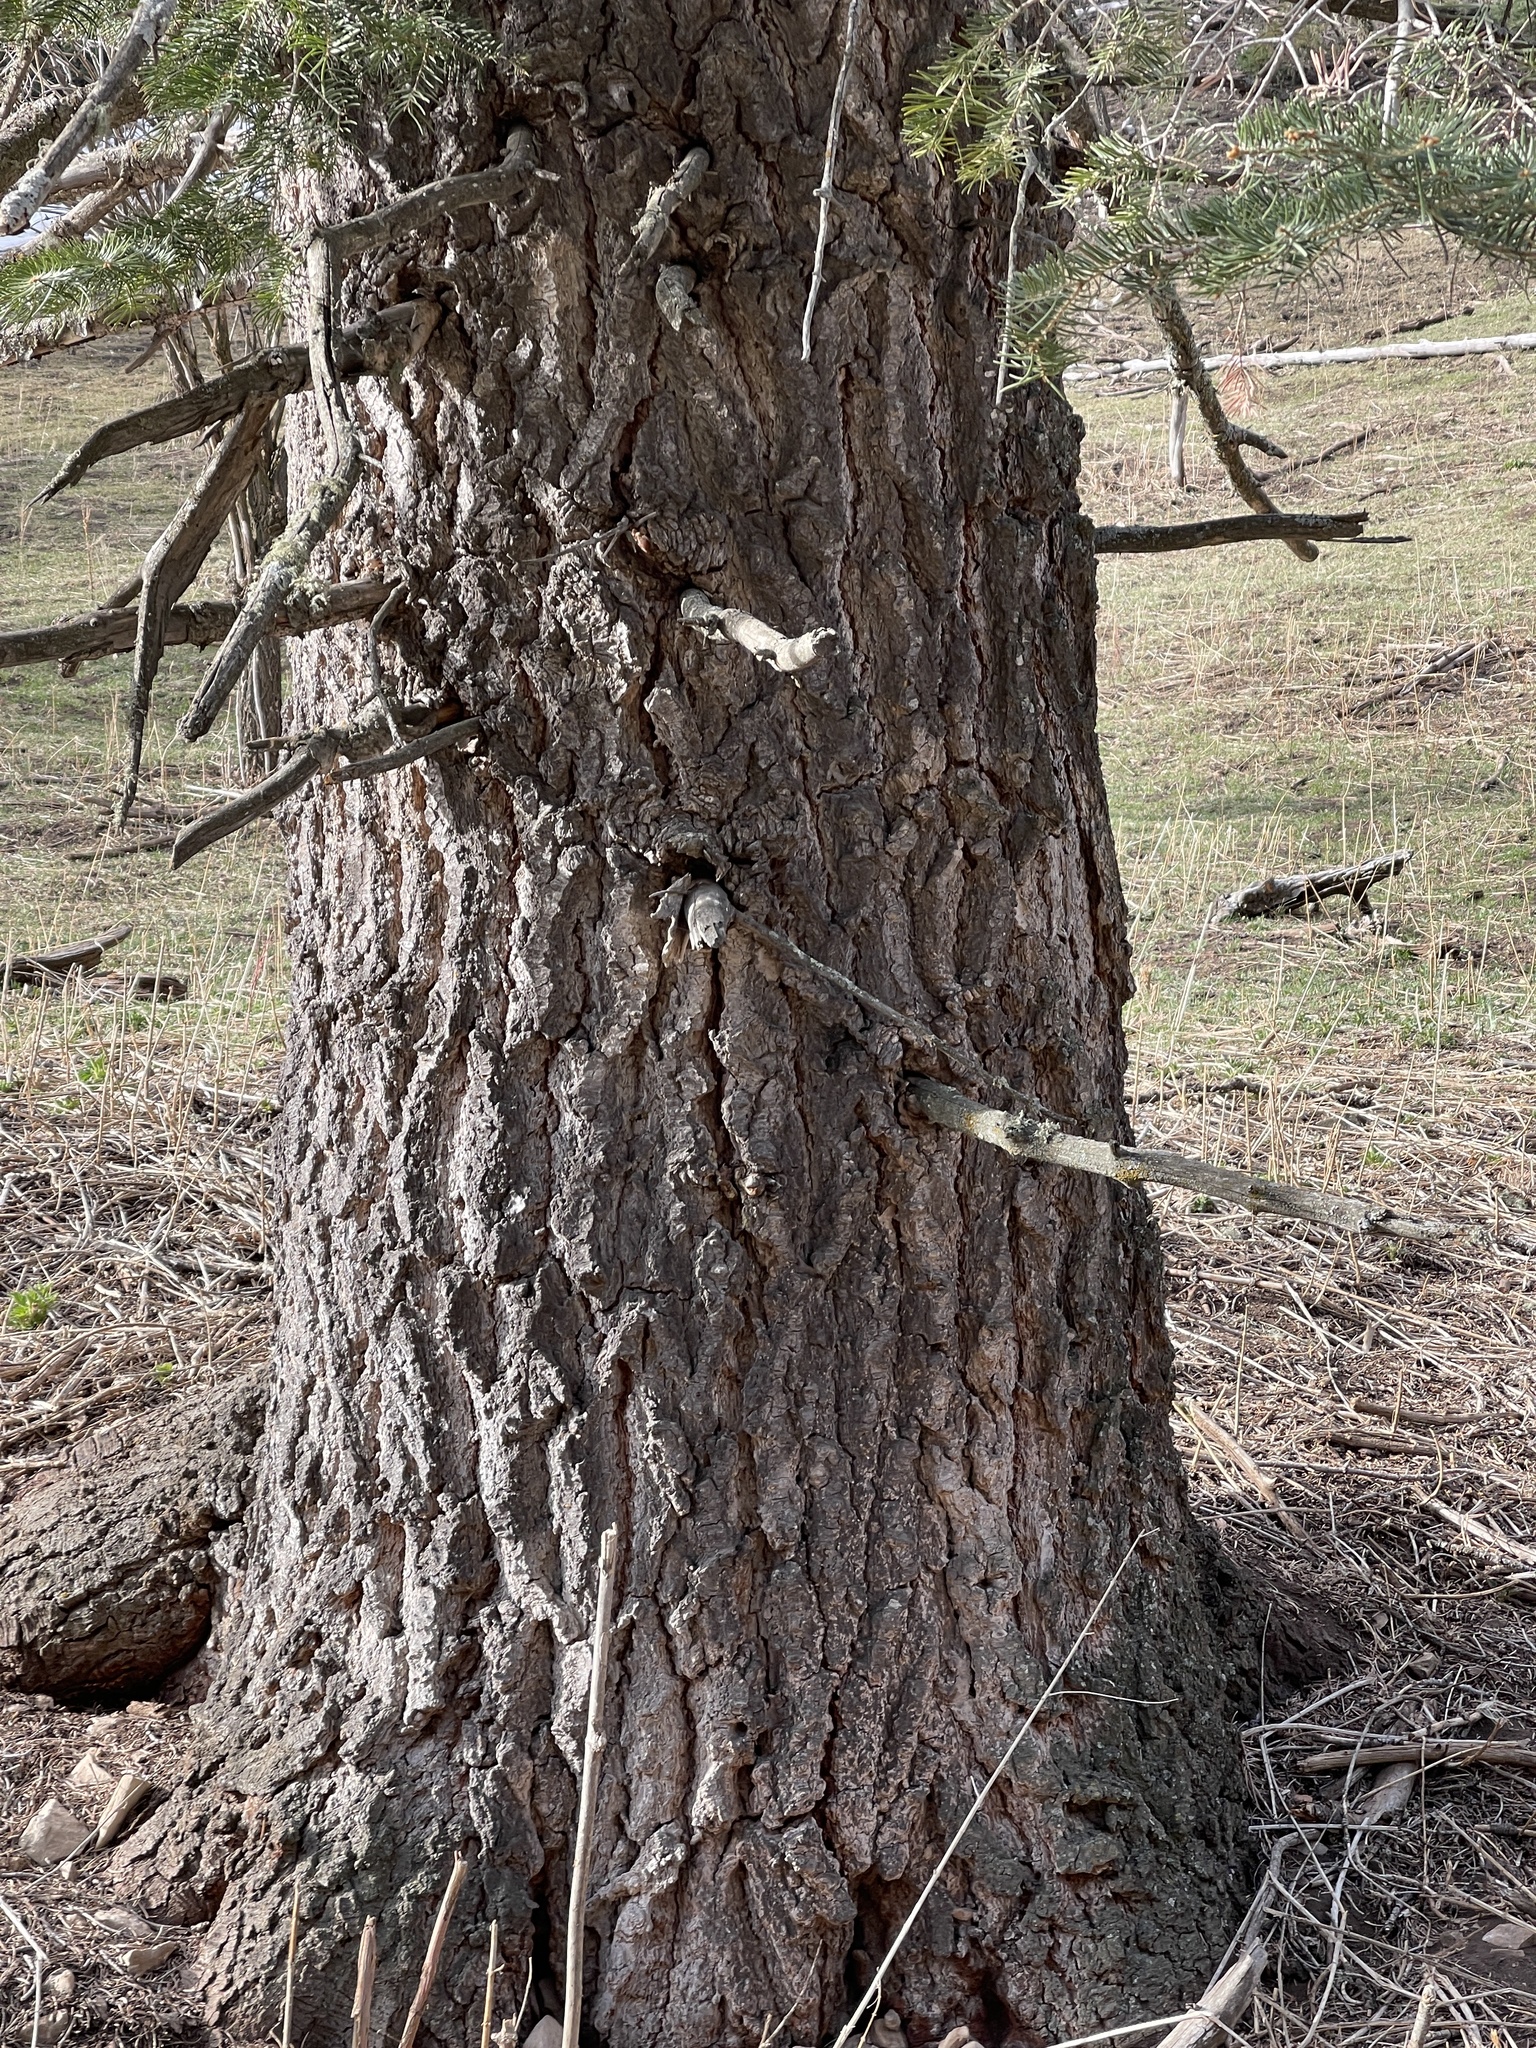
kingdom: Plantae
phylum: Tracheophyta
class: Pinopsida
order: Pinales
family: Pinaceae
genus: Abies
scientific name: Abies concolor
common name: Colorado fir
